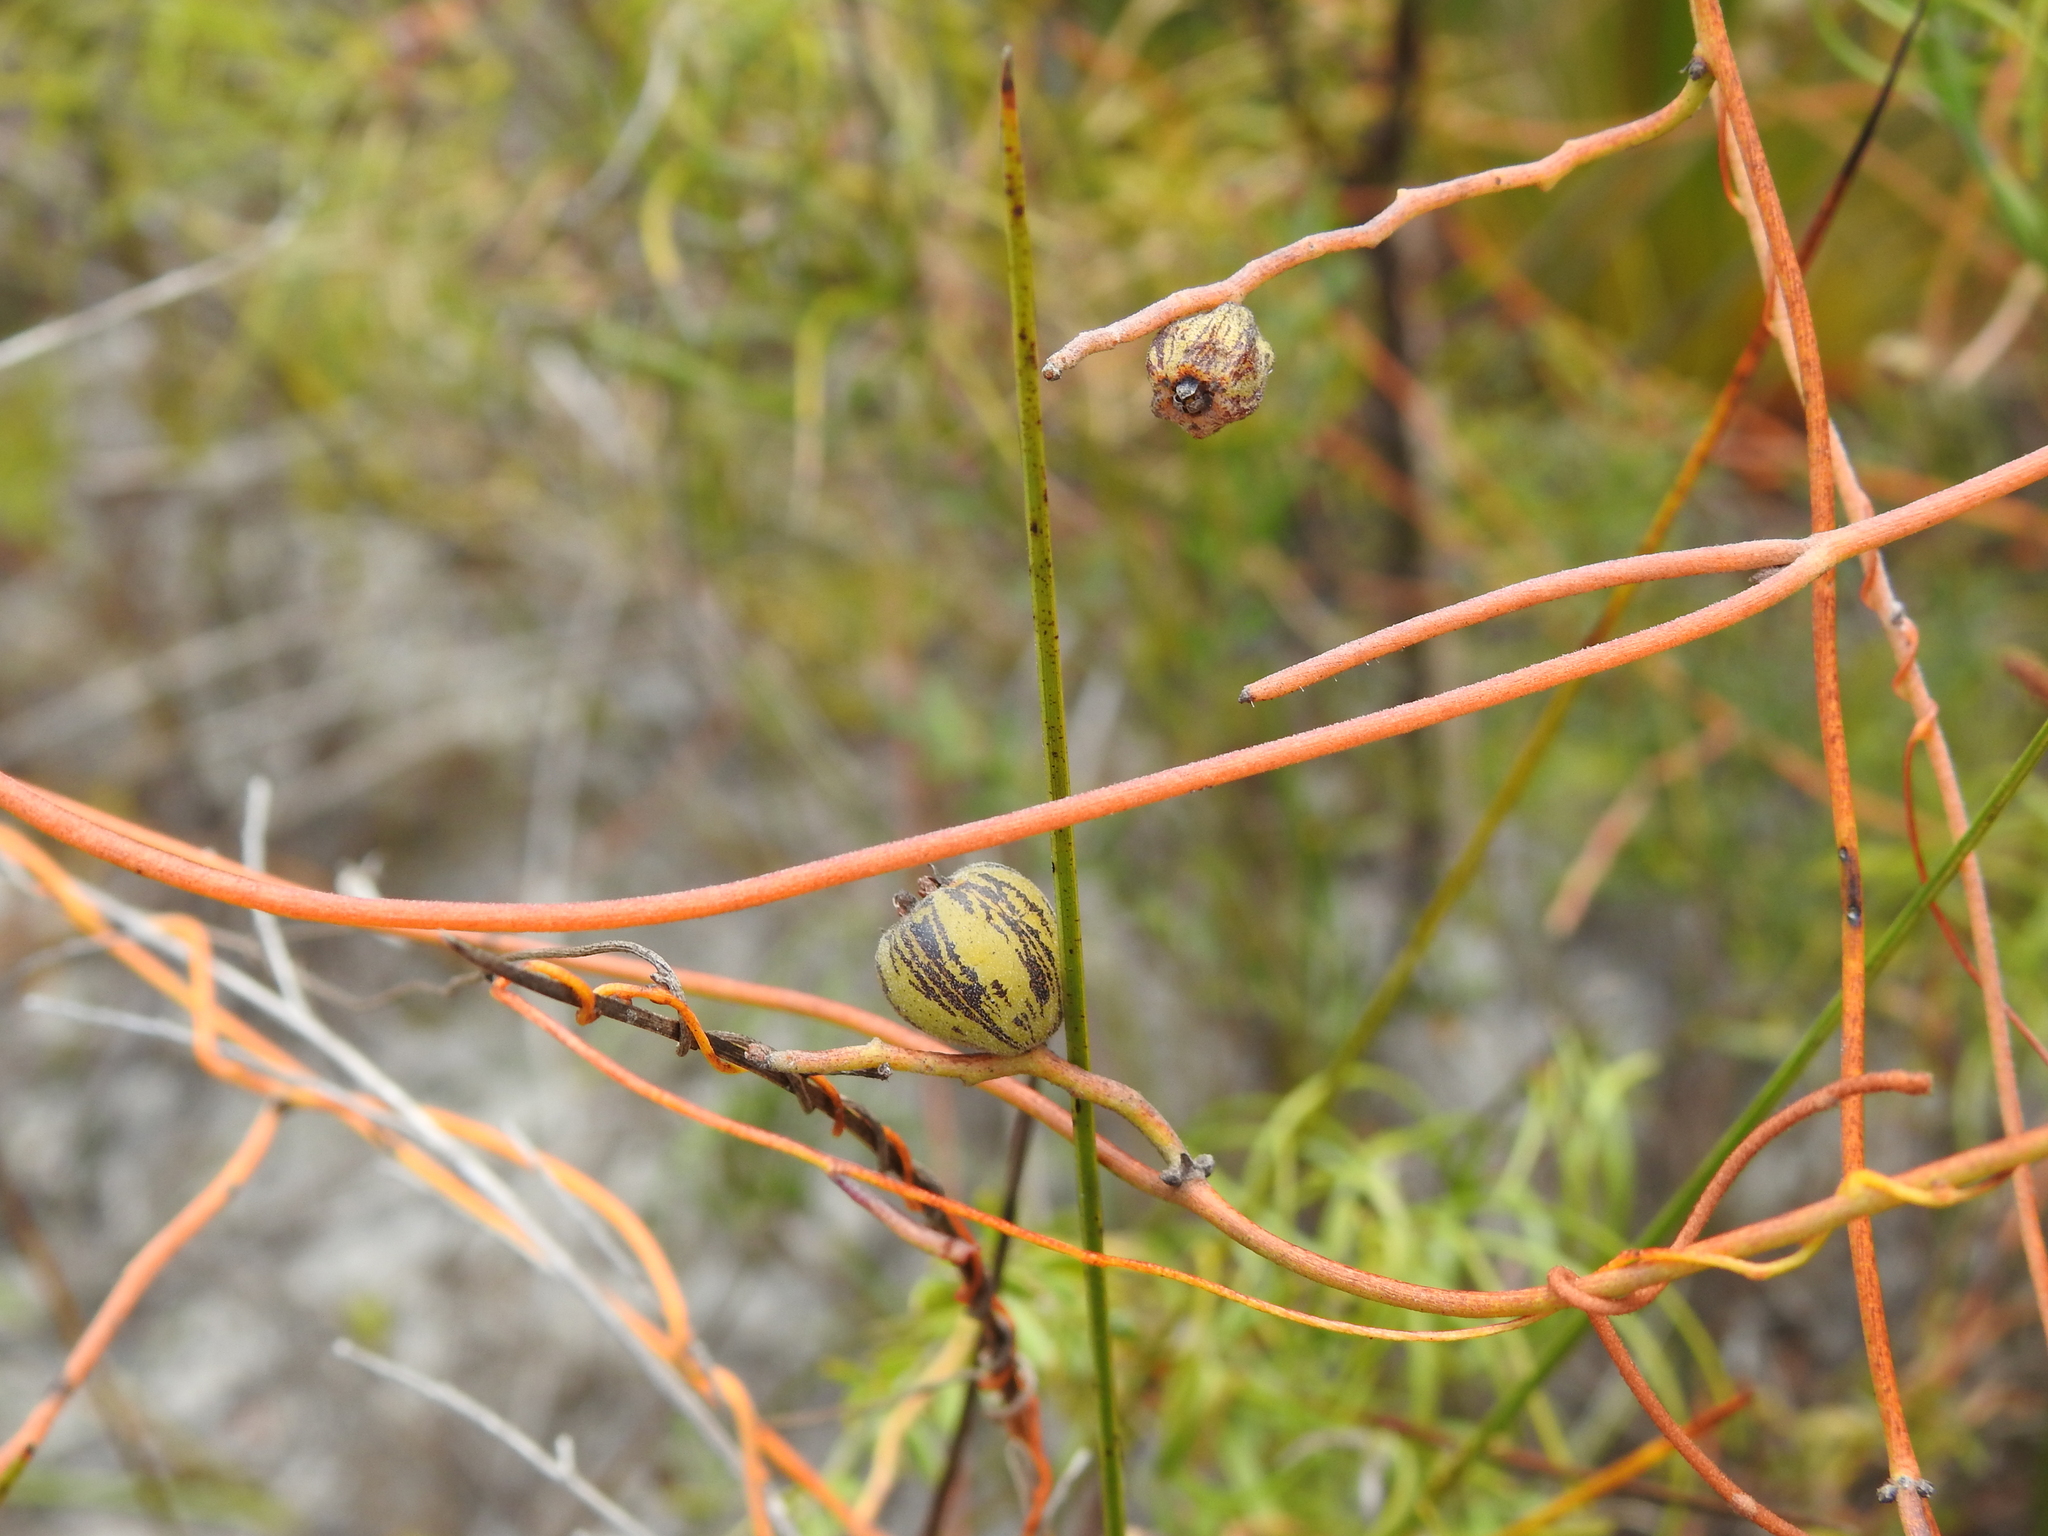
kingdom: Plantae
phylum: Tracheophyta
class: Magnoliopsida
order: Laurales
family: Lauraceae
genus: Cassytha
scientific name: Cassytha pubescens
